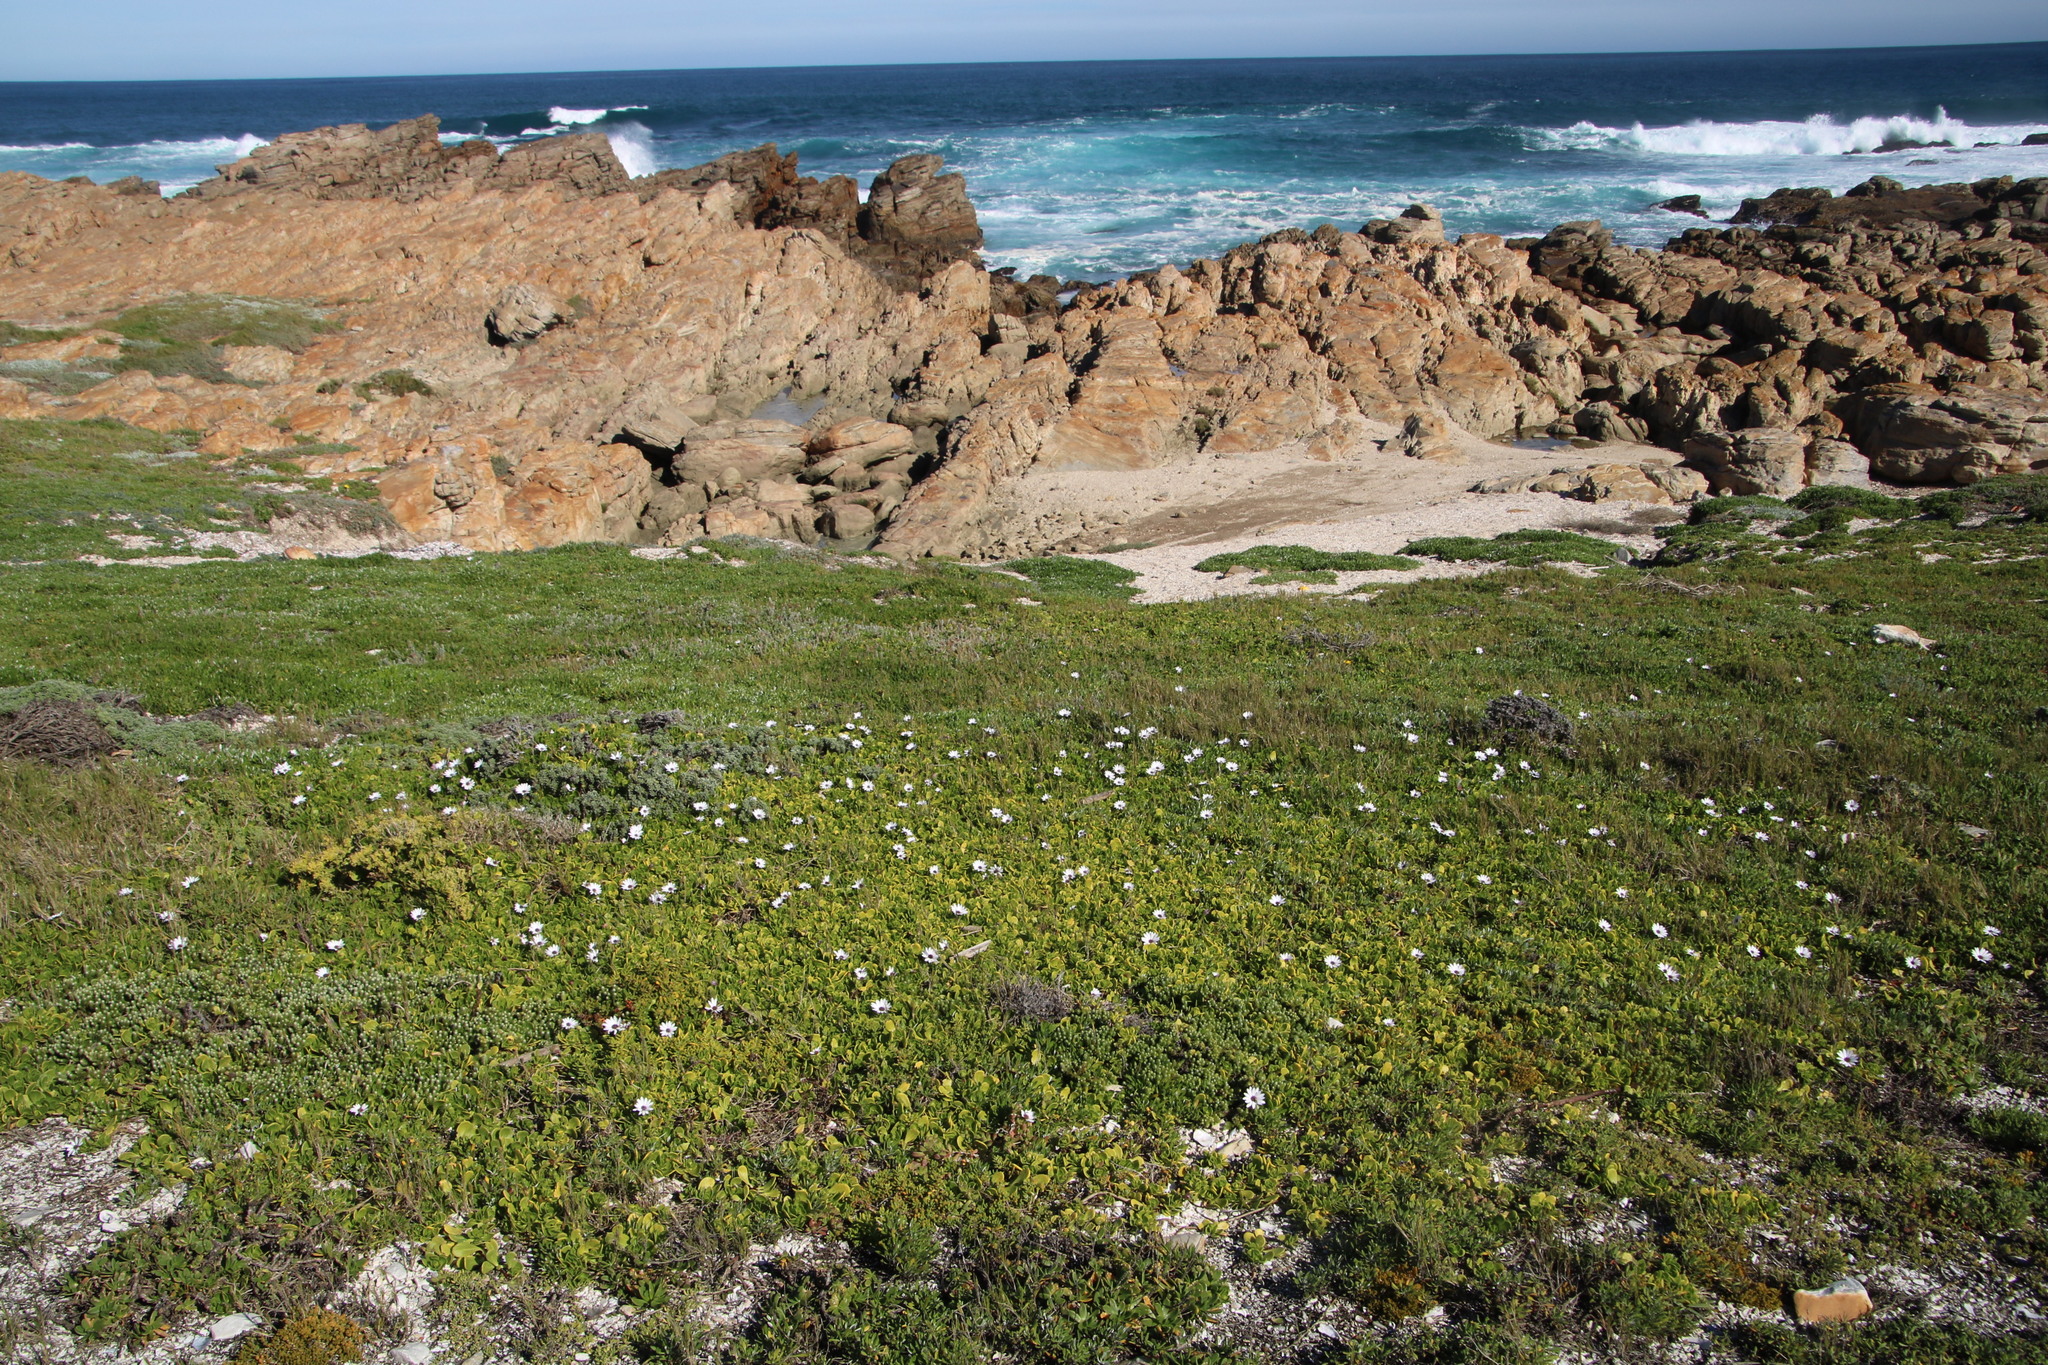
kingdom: Plantae
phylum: Tracheophyta
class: Magnoliopsida
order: Asterales
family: Asteraceae
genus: Dimorphotheca
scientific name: Dimorphotheca fruticosa
